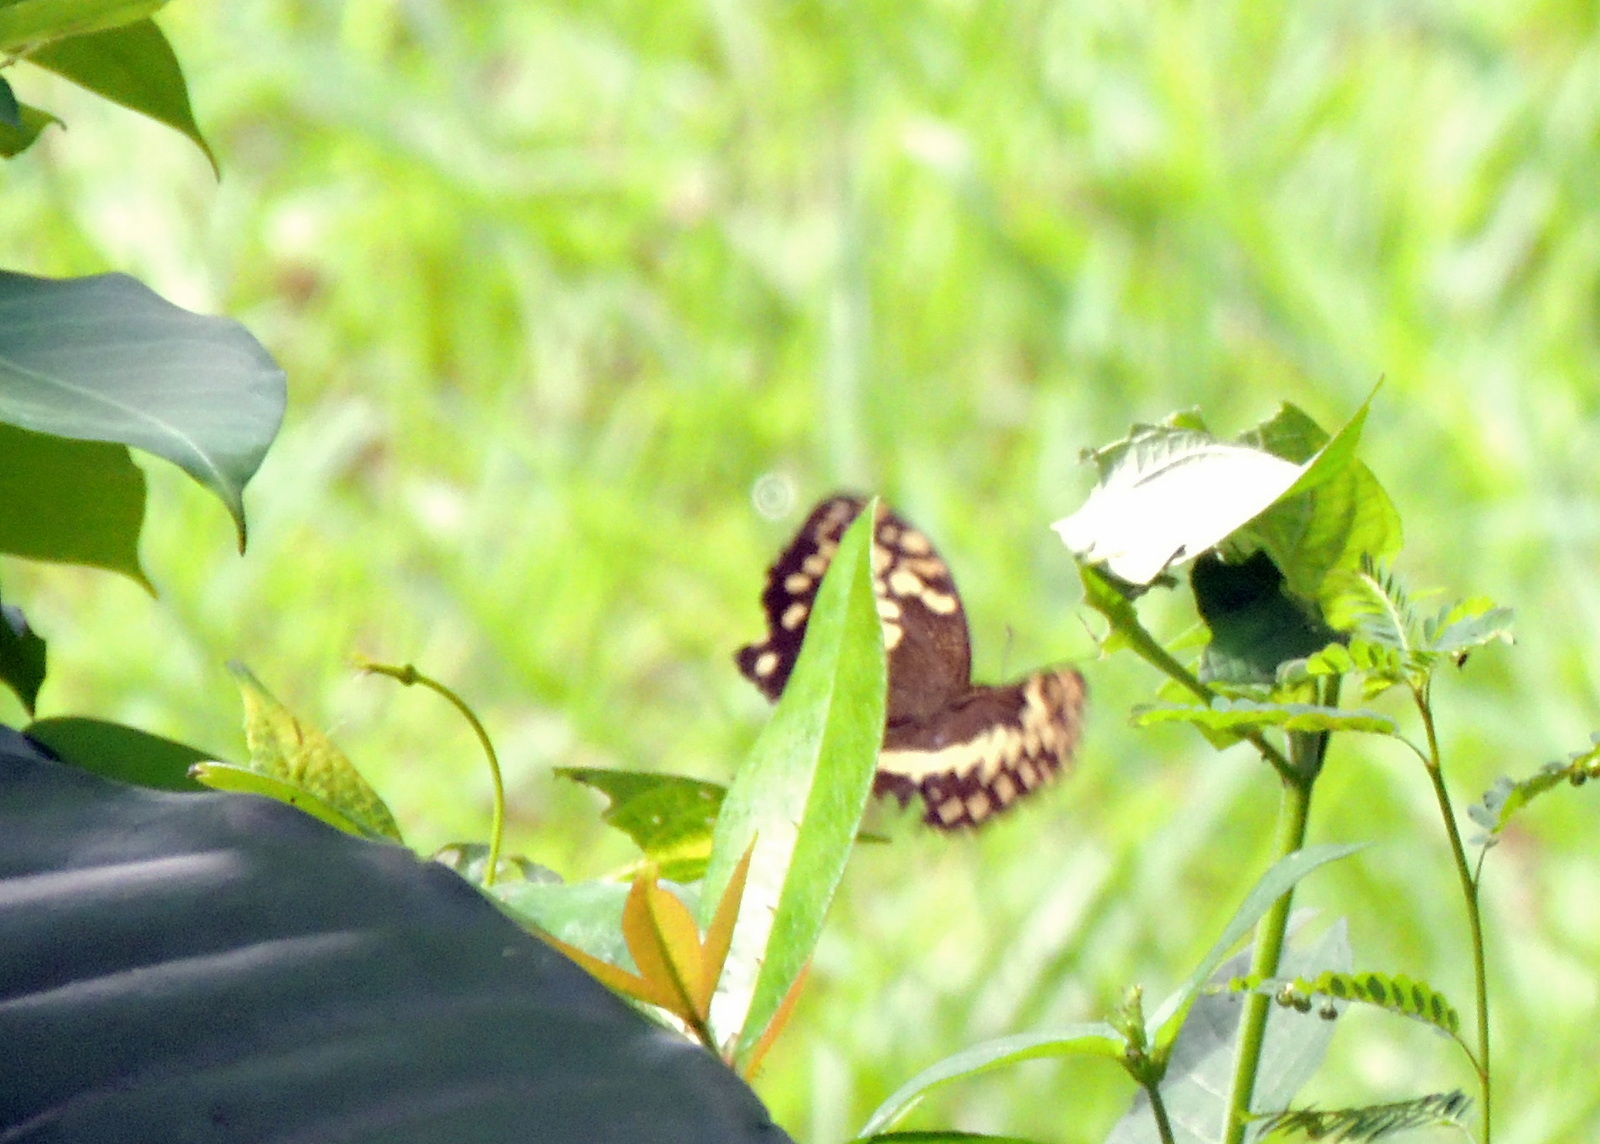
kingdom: Animalia
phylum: Arthropoda
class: Insecta
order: Lepidoptera
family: Papilionidae
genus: Papilio
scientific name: Papilio demodocus
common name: Christmas butterfly
